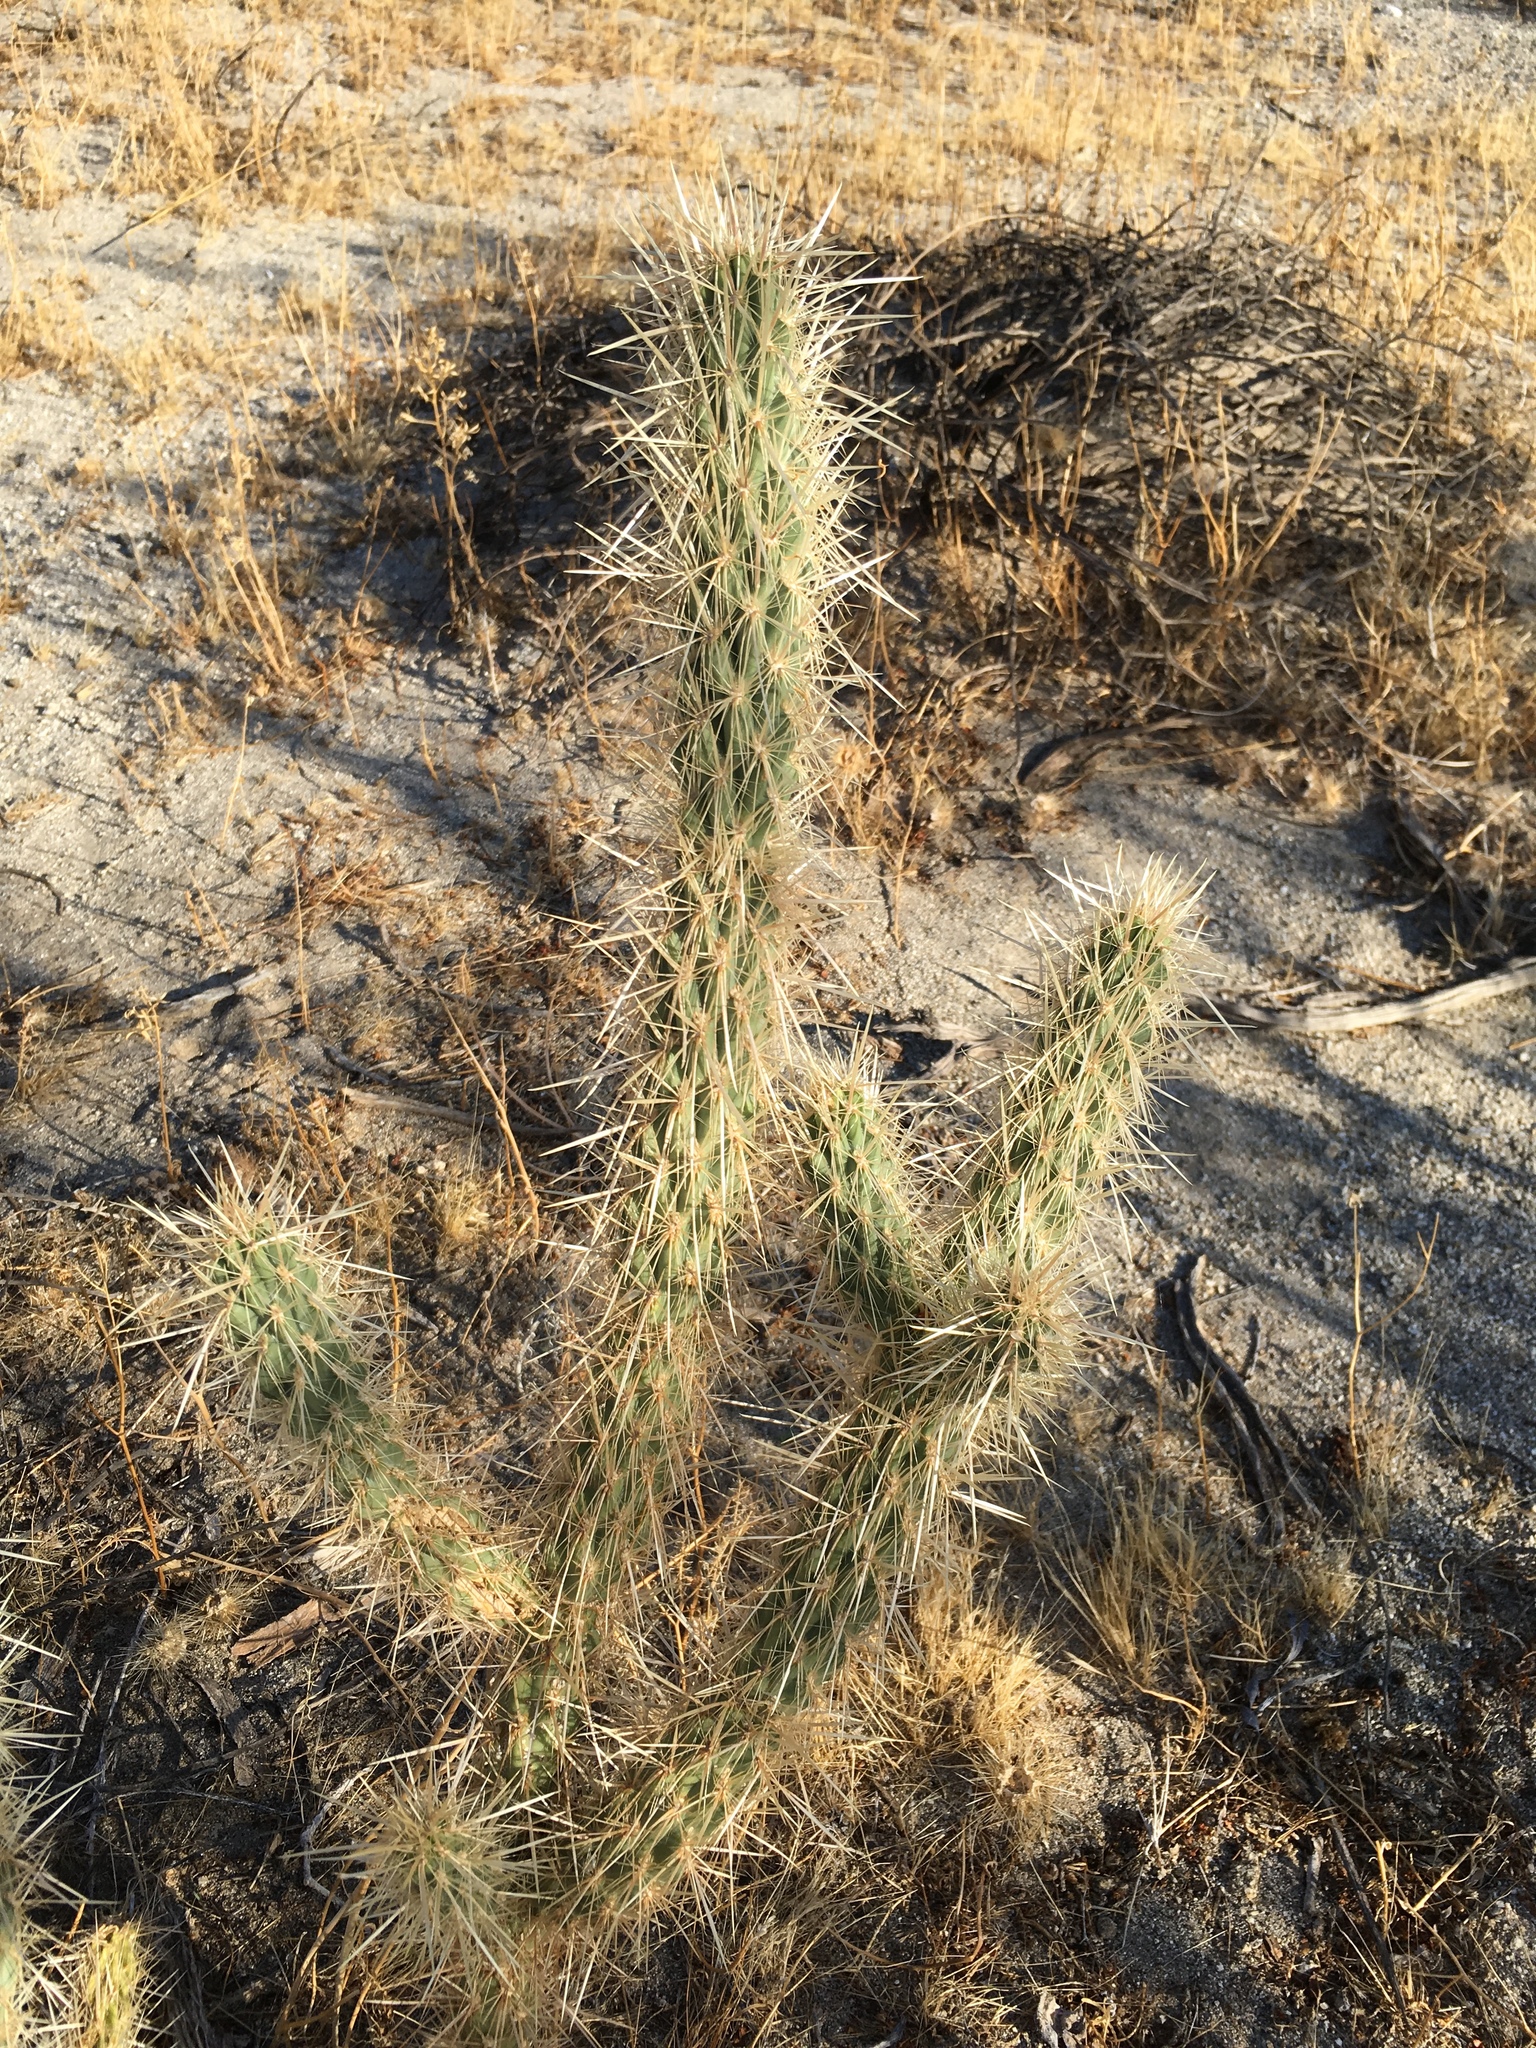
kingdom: Plantae
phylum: Tracheophyta
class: Magnoliopsida
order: Caryophyllales
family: Cactaceae
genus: Cylindropuntia
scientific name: Cylindropuntia ganderi
